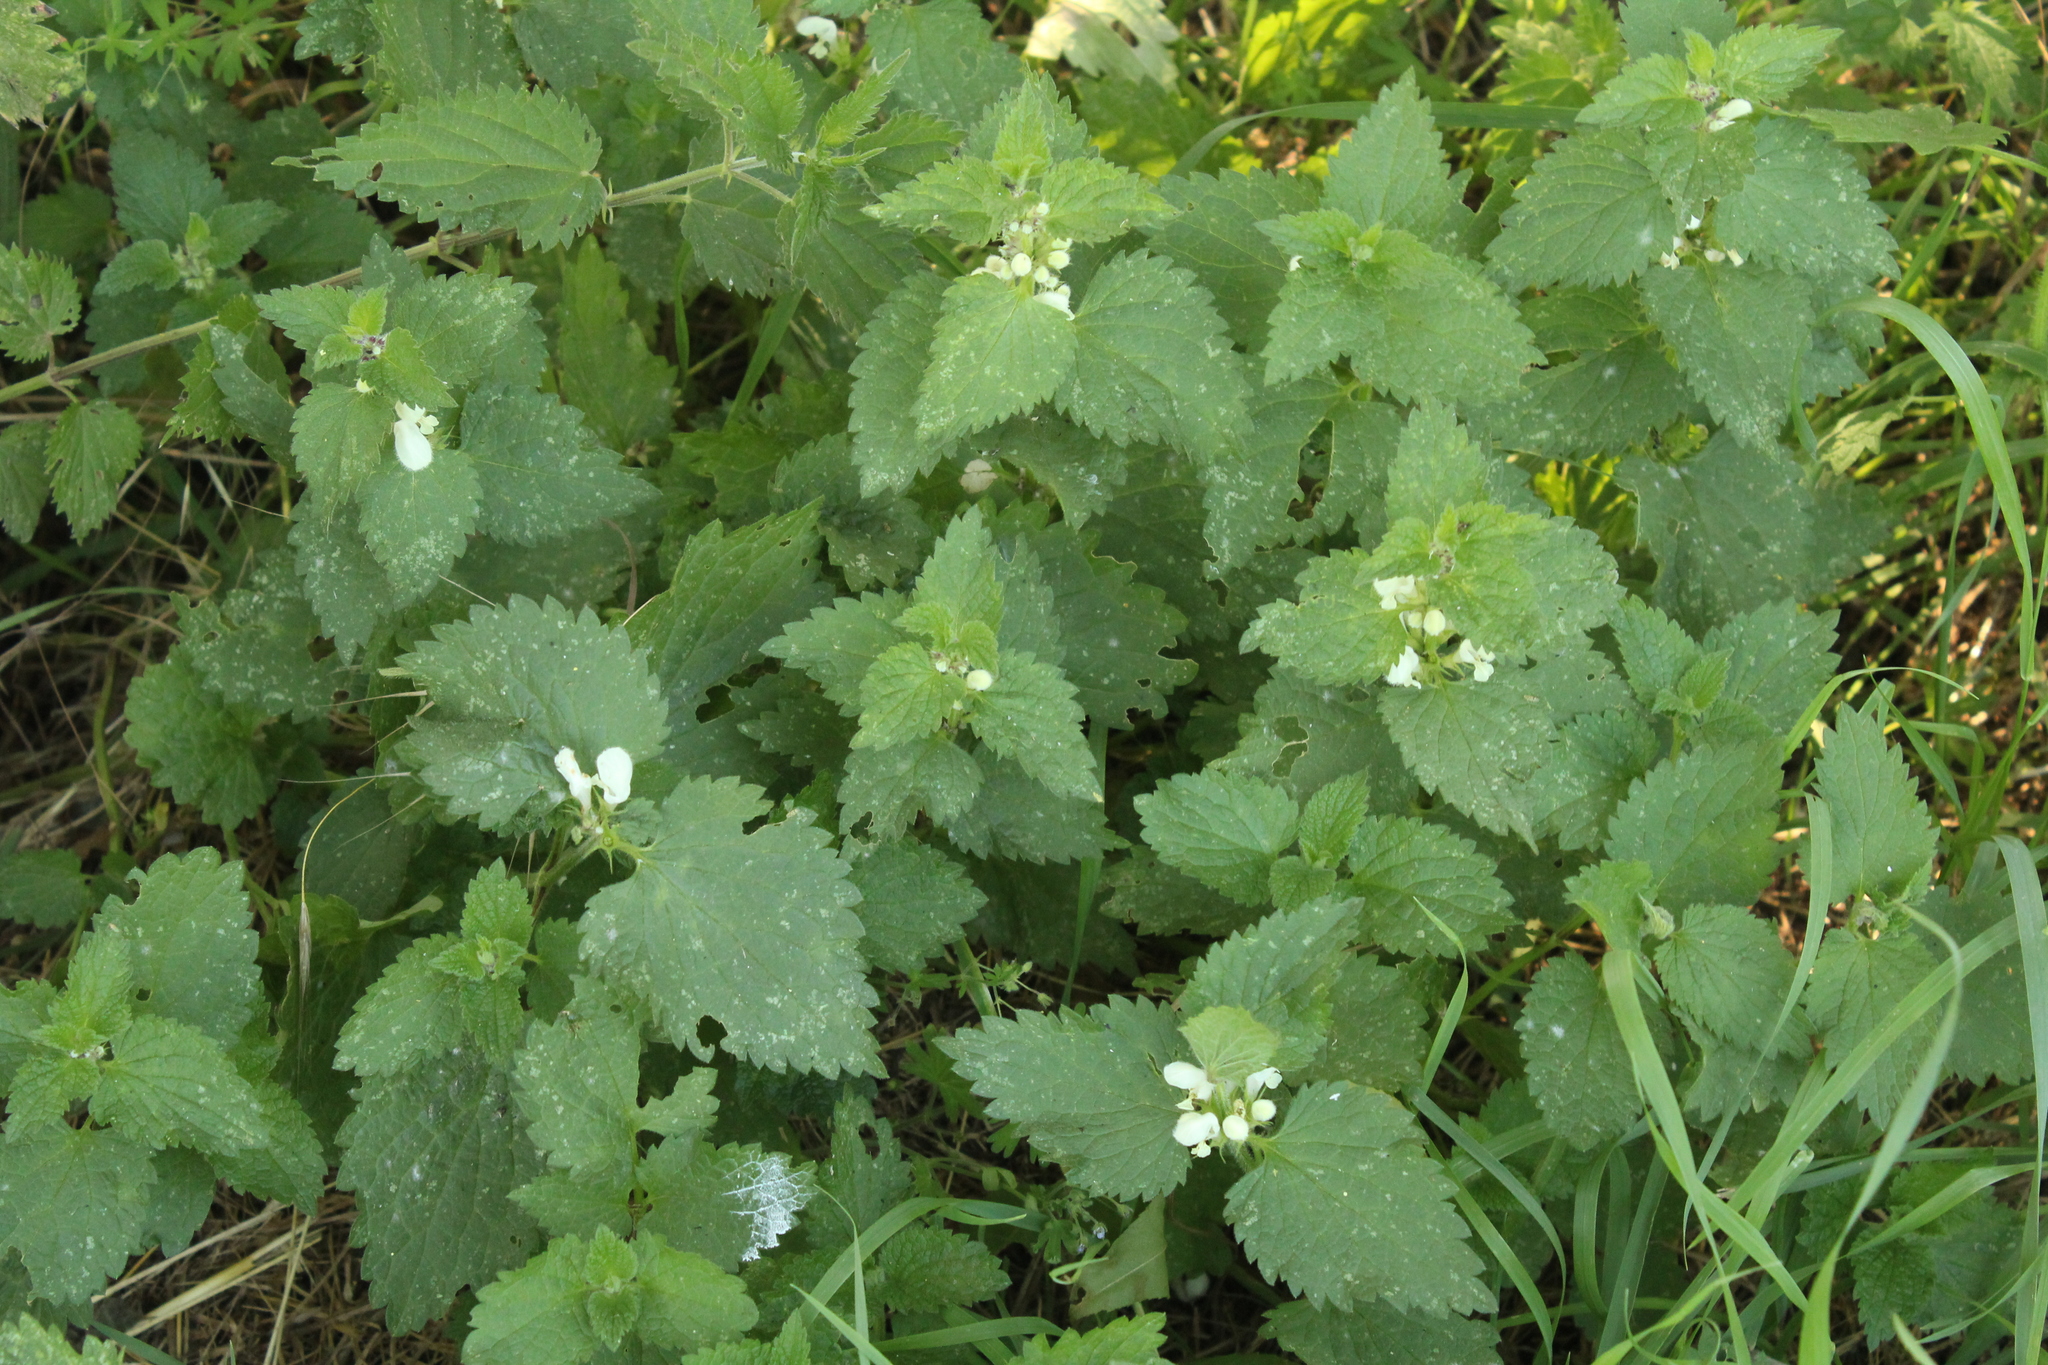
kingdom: Plantae
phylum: Tracheophyta
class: Magnoliopsida
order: Lamiales
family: Lamiaceae
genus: Lamium
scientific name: Lamium album
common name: White dead-nettle
